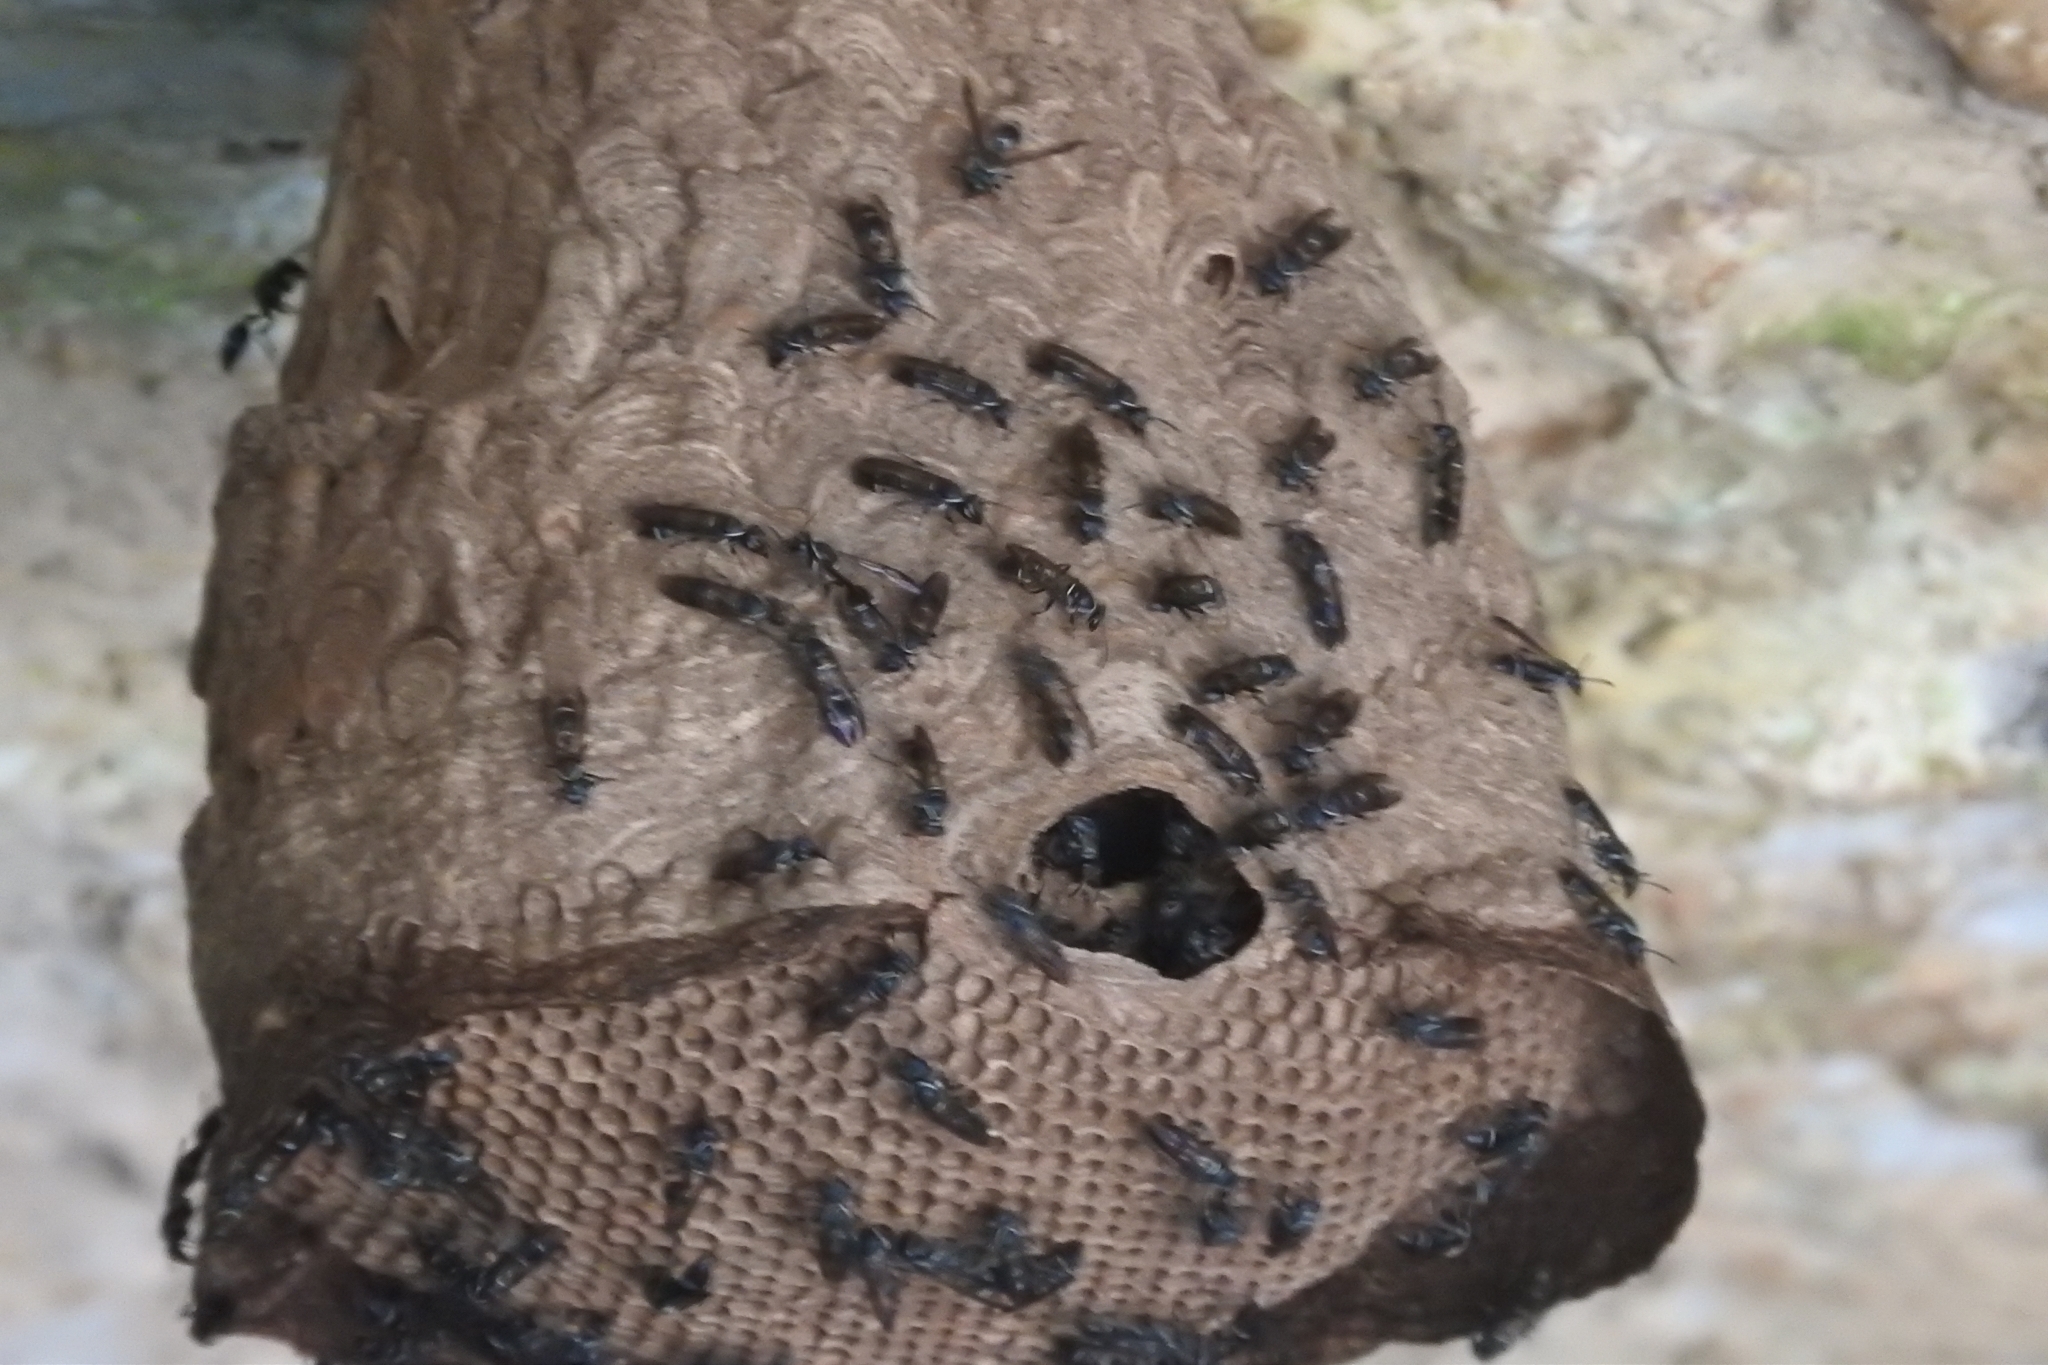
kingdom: Animalia
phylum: Arthropoda
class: Insecta
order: Hymenoptera
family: Eumenidae
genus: Polybia
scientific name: Polybia plebeja
